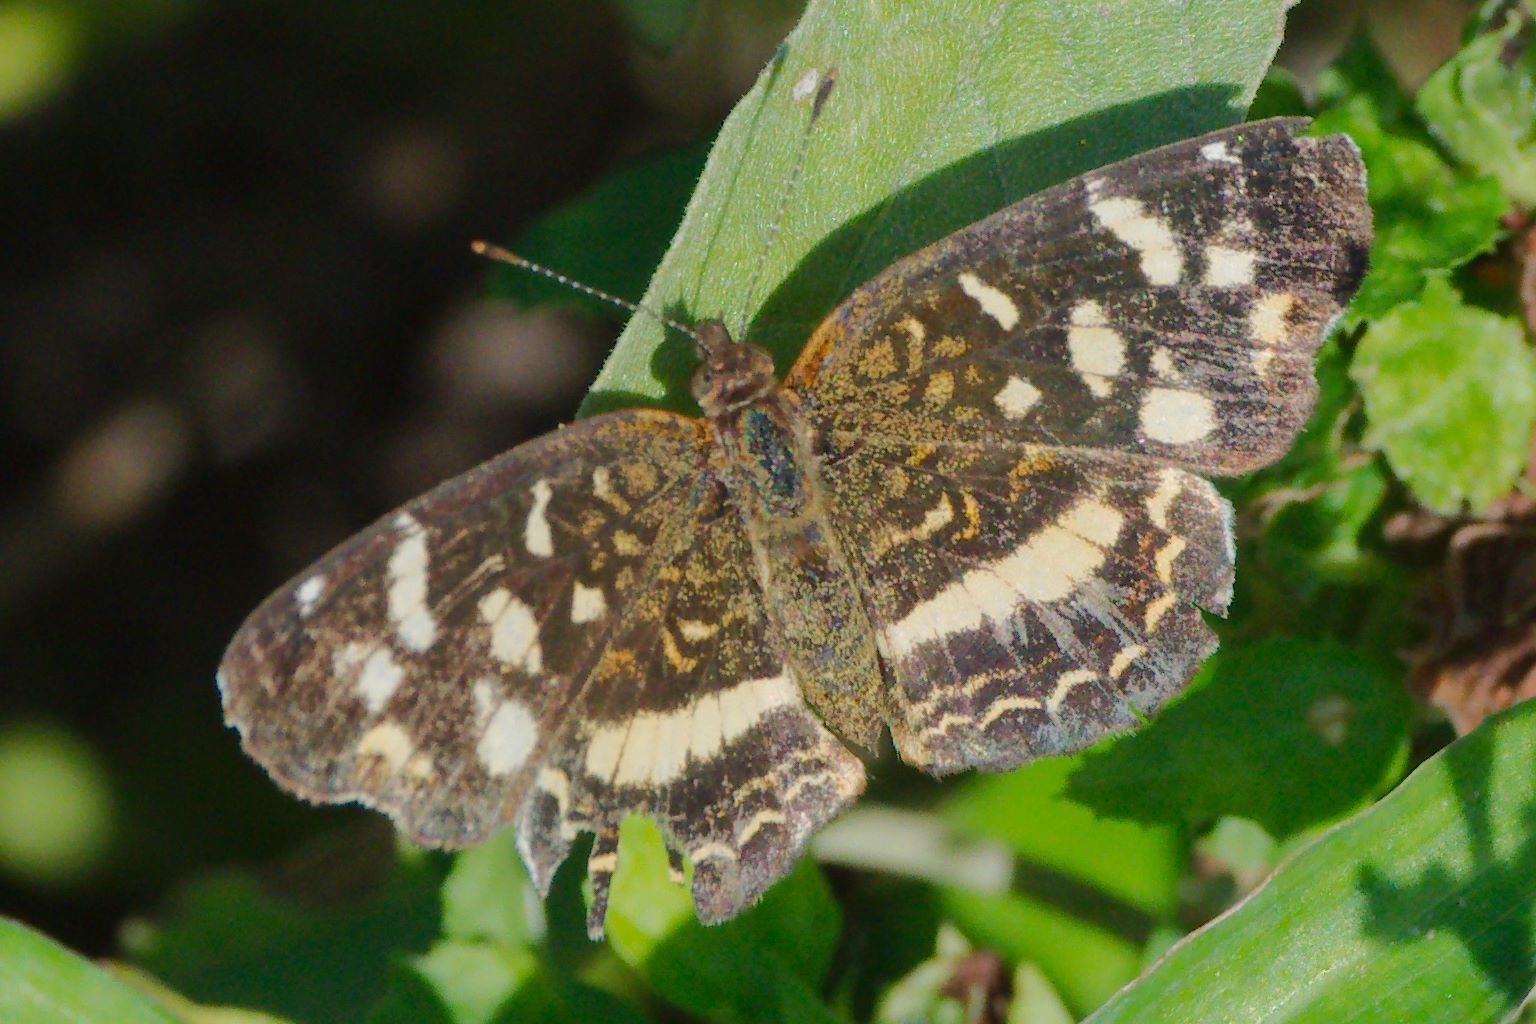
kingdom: Animalia
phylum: Arthropoda
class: Insecta
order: Lepidoptera
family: Nymphalidae
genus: Anthanassa
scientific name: Anthanassa tulcis
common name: Pale-banded crescent
